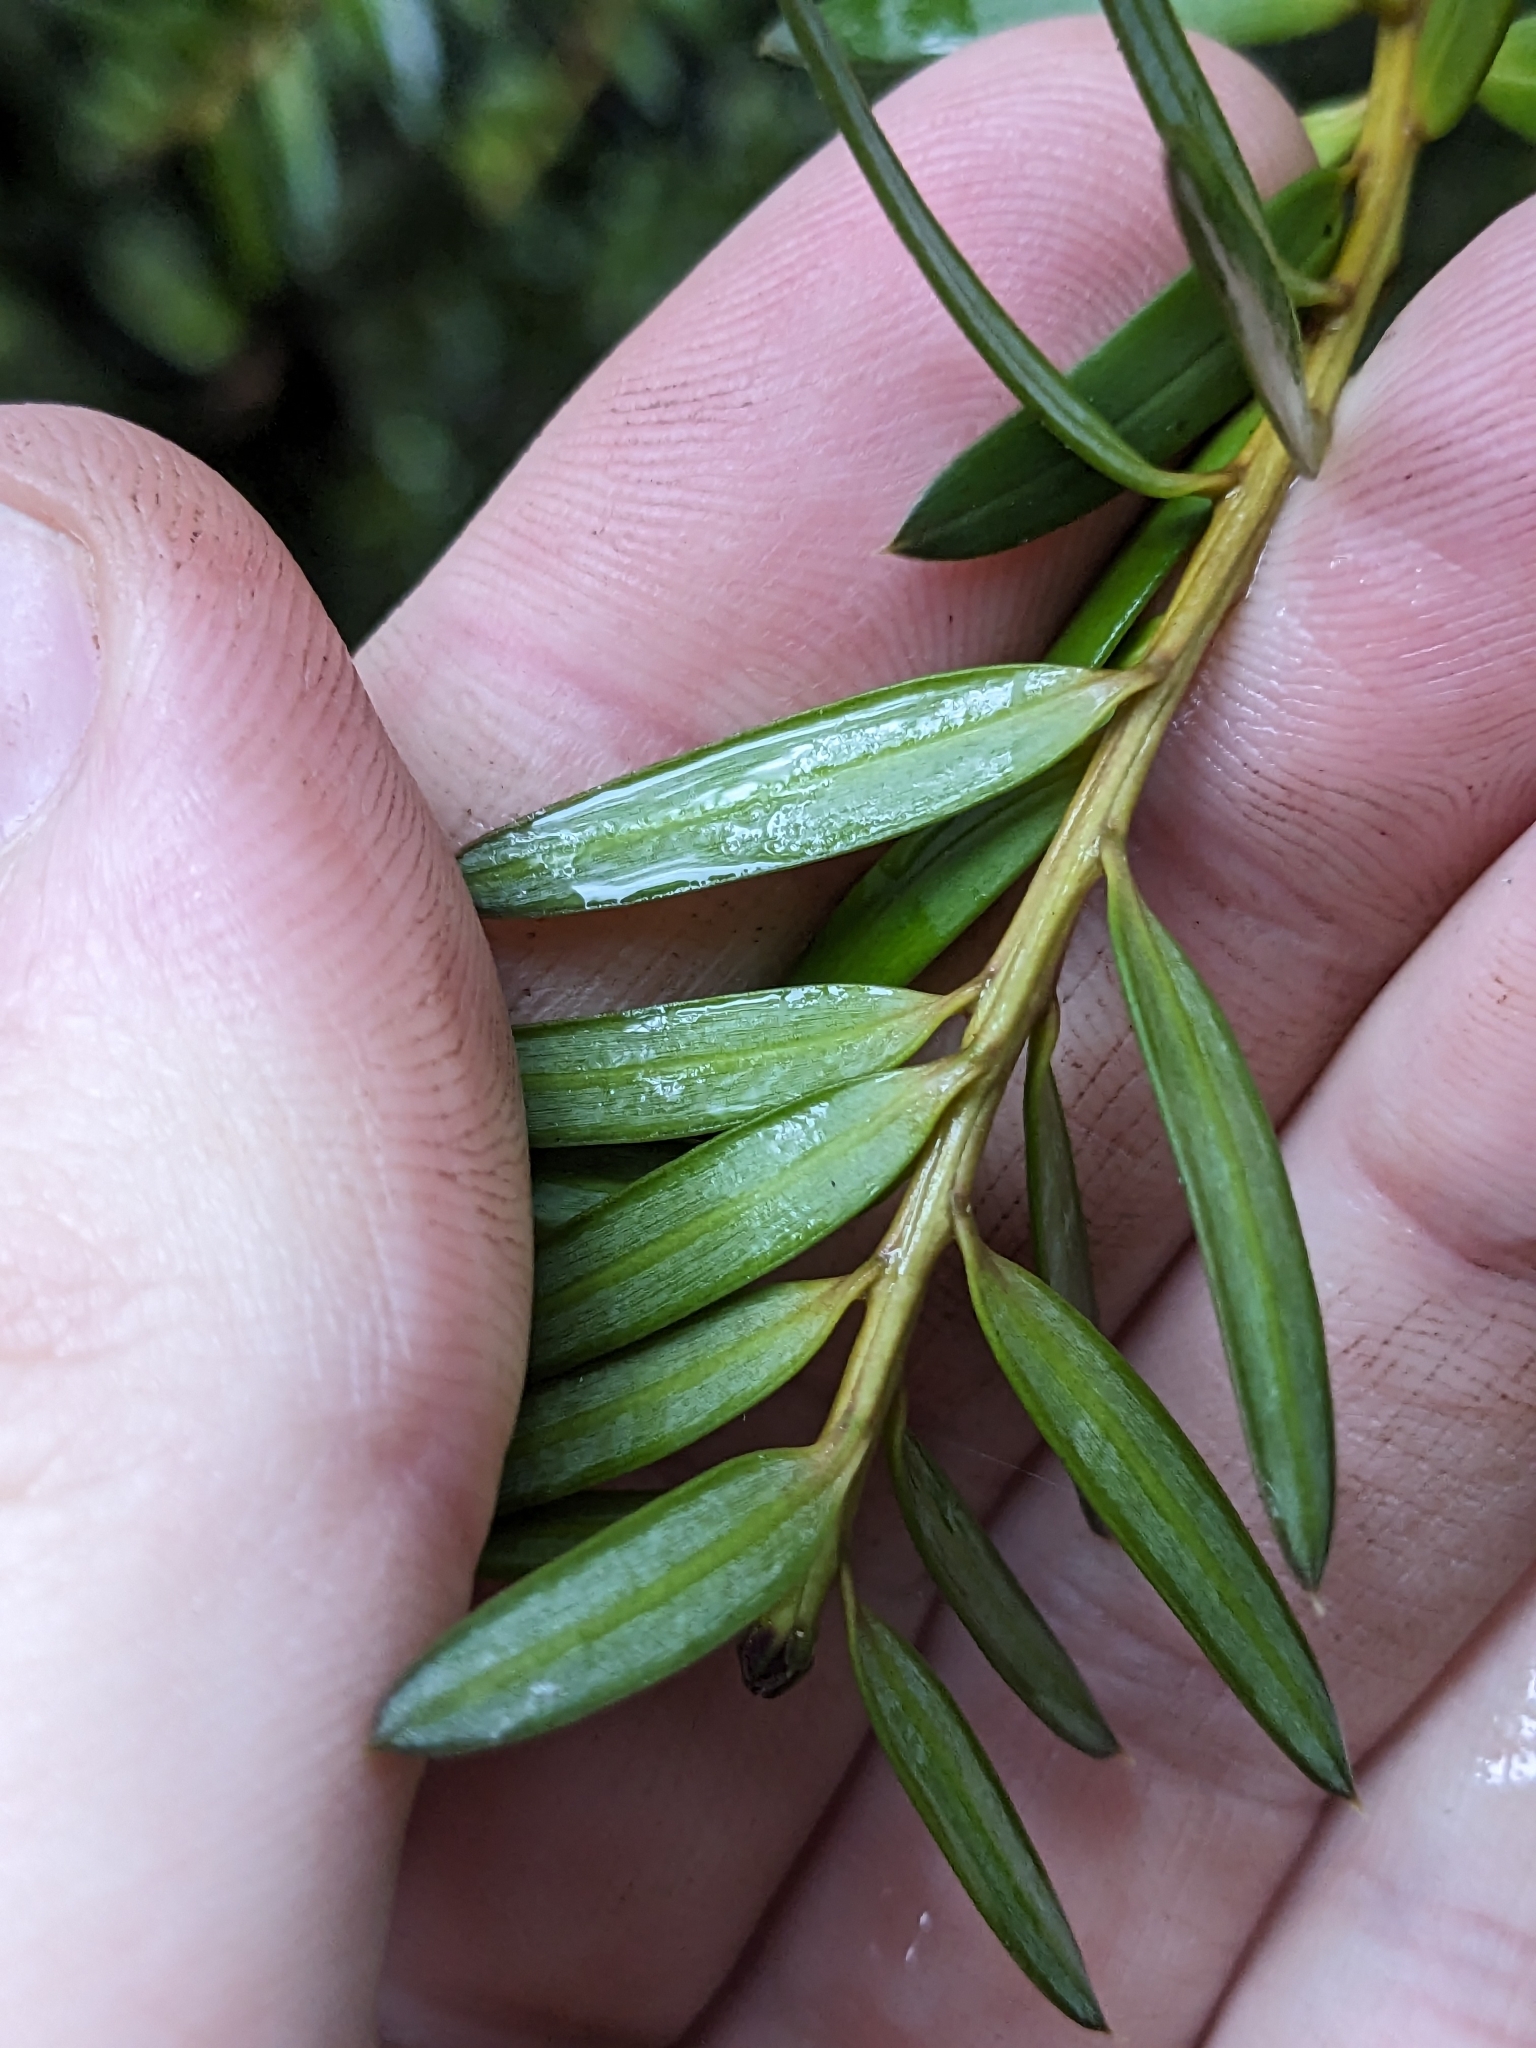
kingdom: Plantae
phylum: Tracheophyta
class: Pinopsida
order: Pinales
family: Podocarpaceae
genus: Podocarpus
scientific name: Podocarpus laetus
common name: Hall's totara
